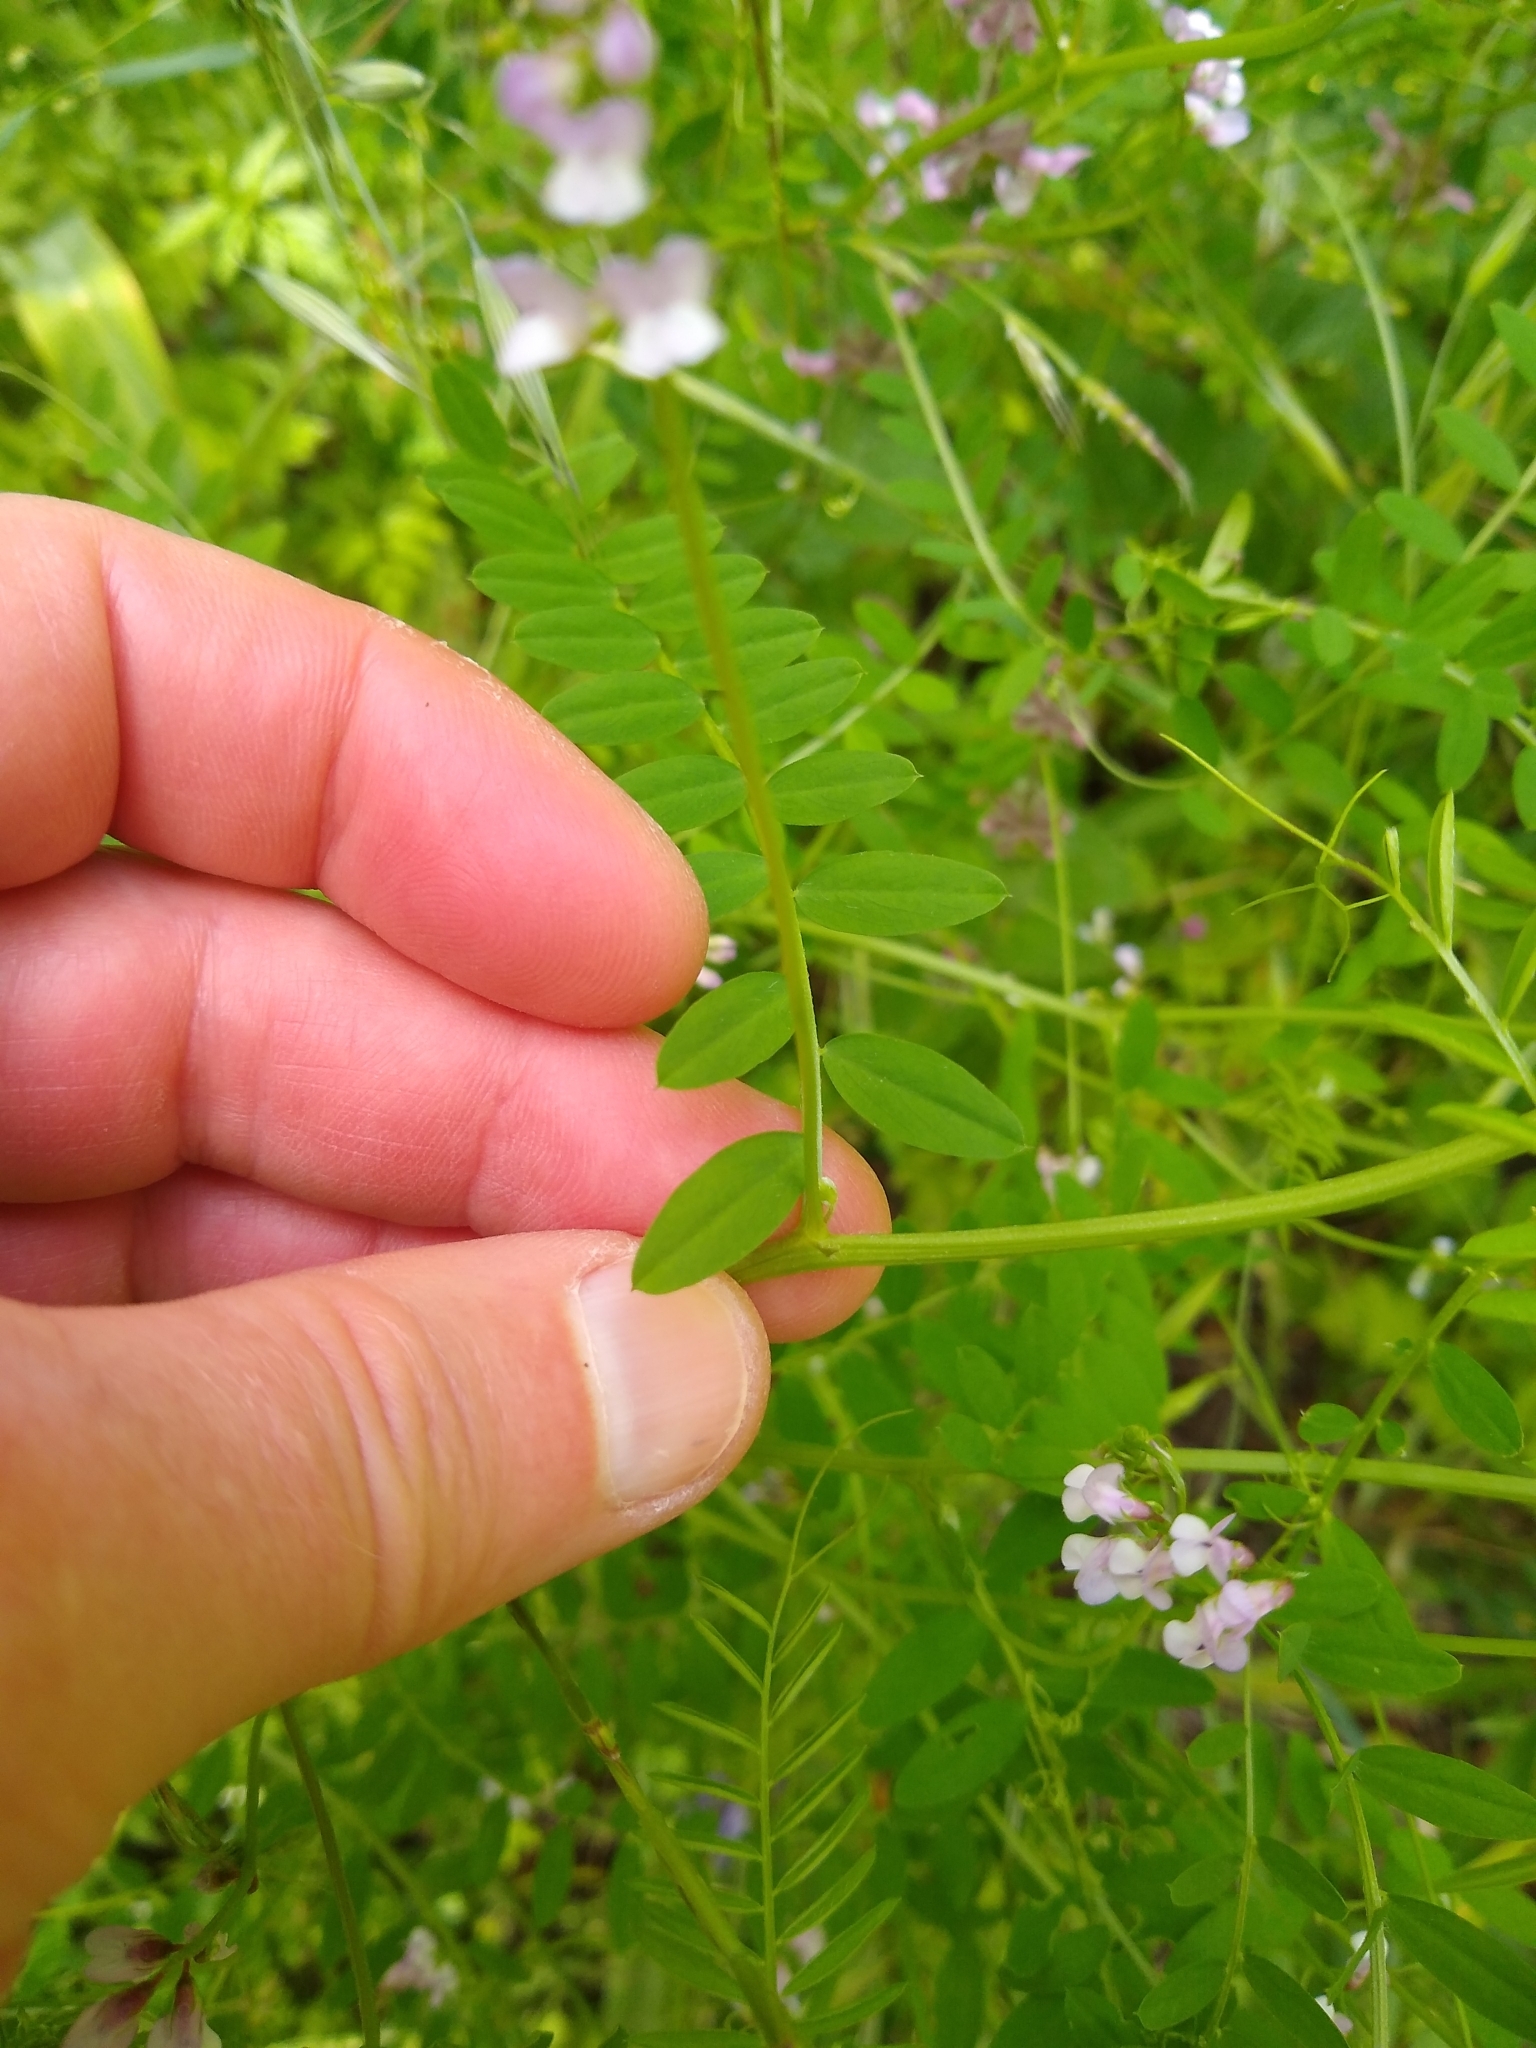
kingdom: Plantae
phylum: Tracheophyta
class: Magnoliopsida
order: Fabales
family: Fabaceae
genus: Vicia
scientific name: Vicia disperma
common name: European vetch
